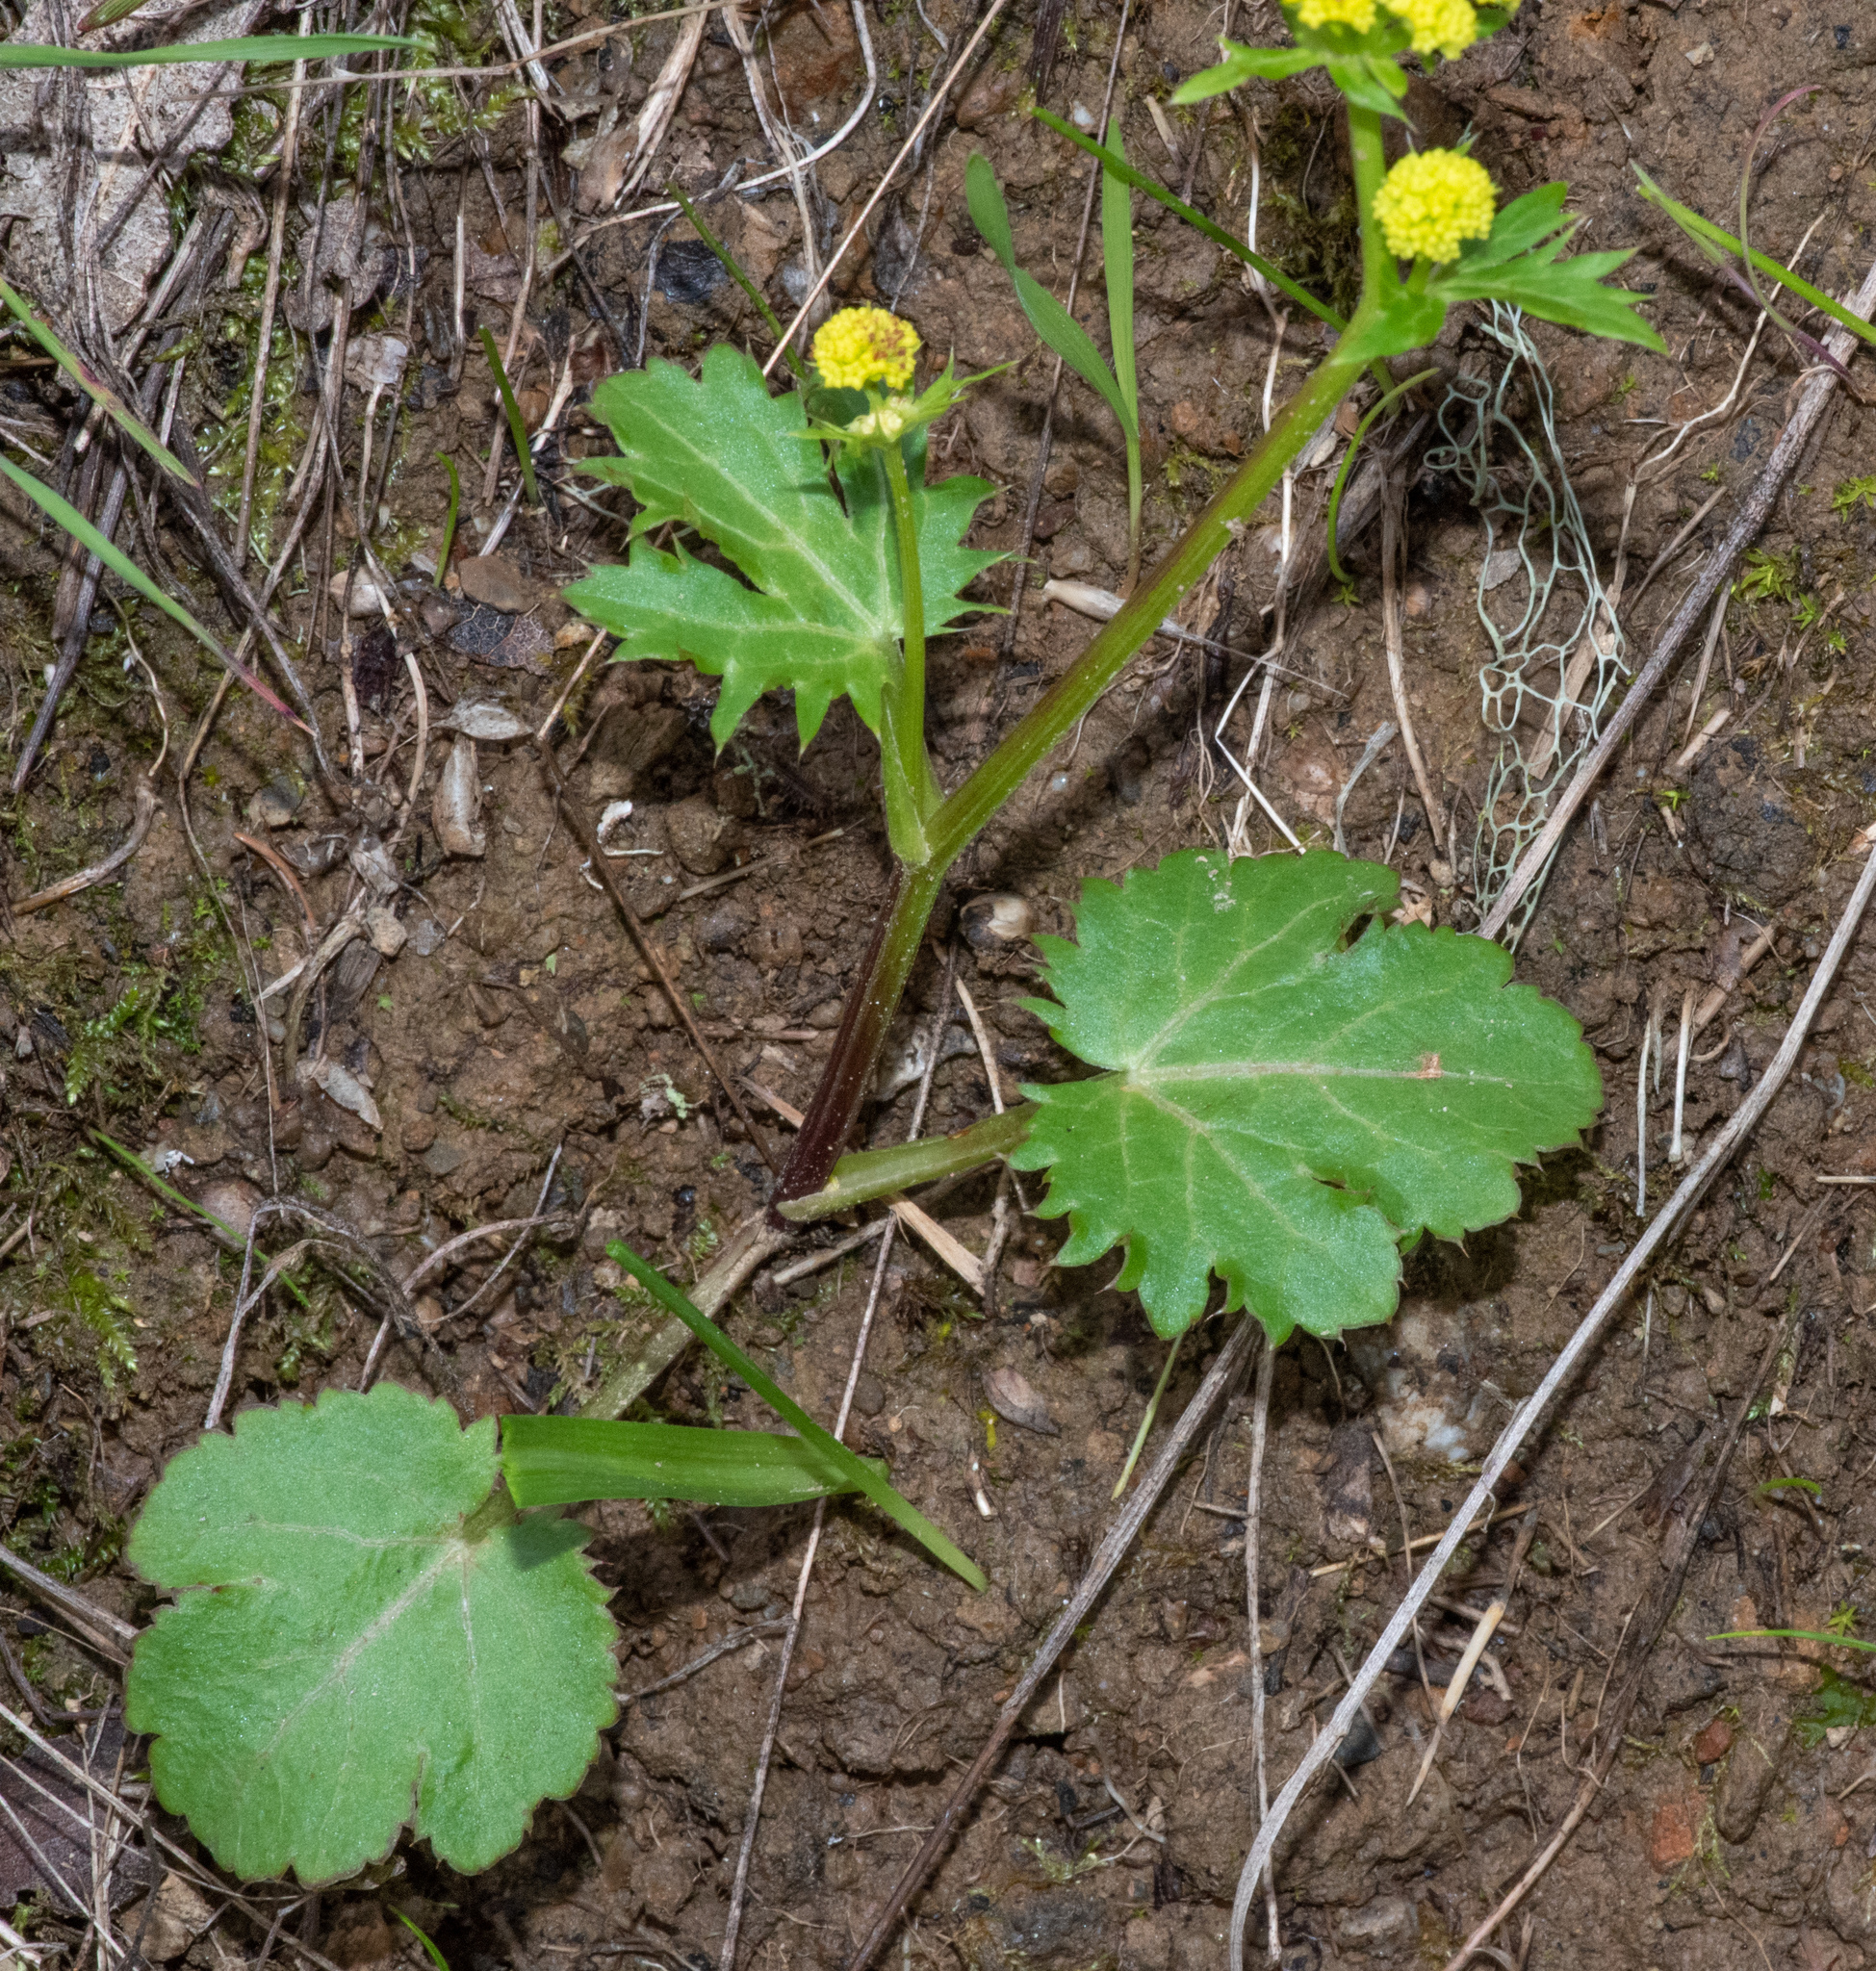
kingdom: Plantae
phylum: Tracheophyta
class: Magnoliopsida
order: Apiales
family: Apiaceae
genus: Sanicula
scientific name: Sanicula laciniata
